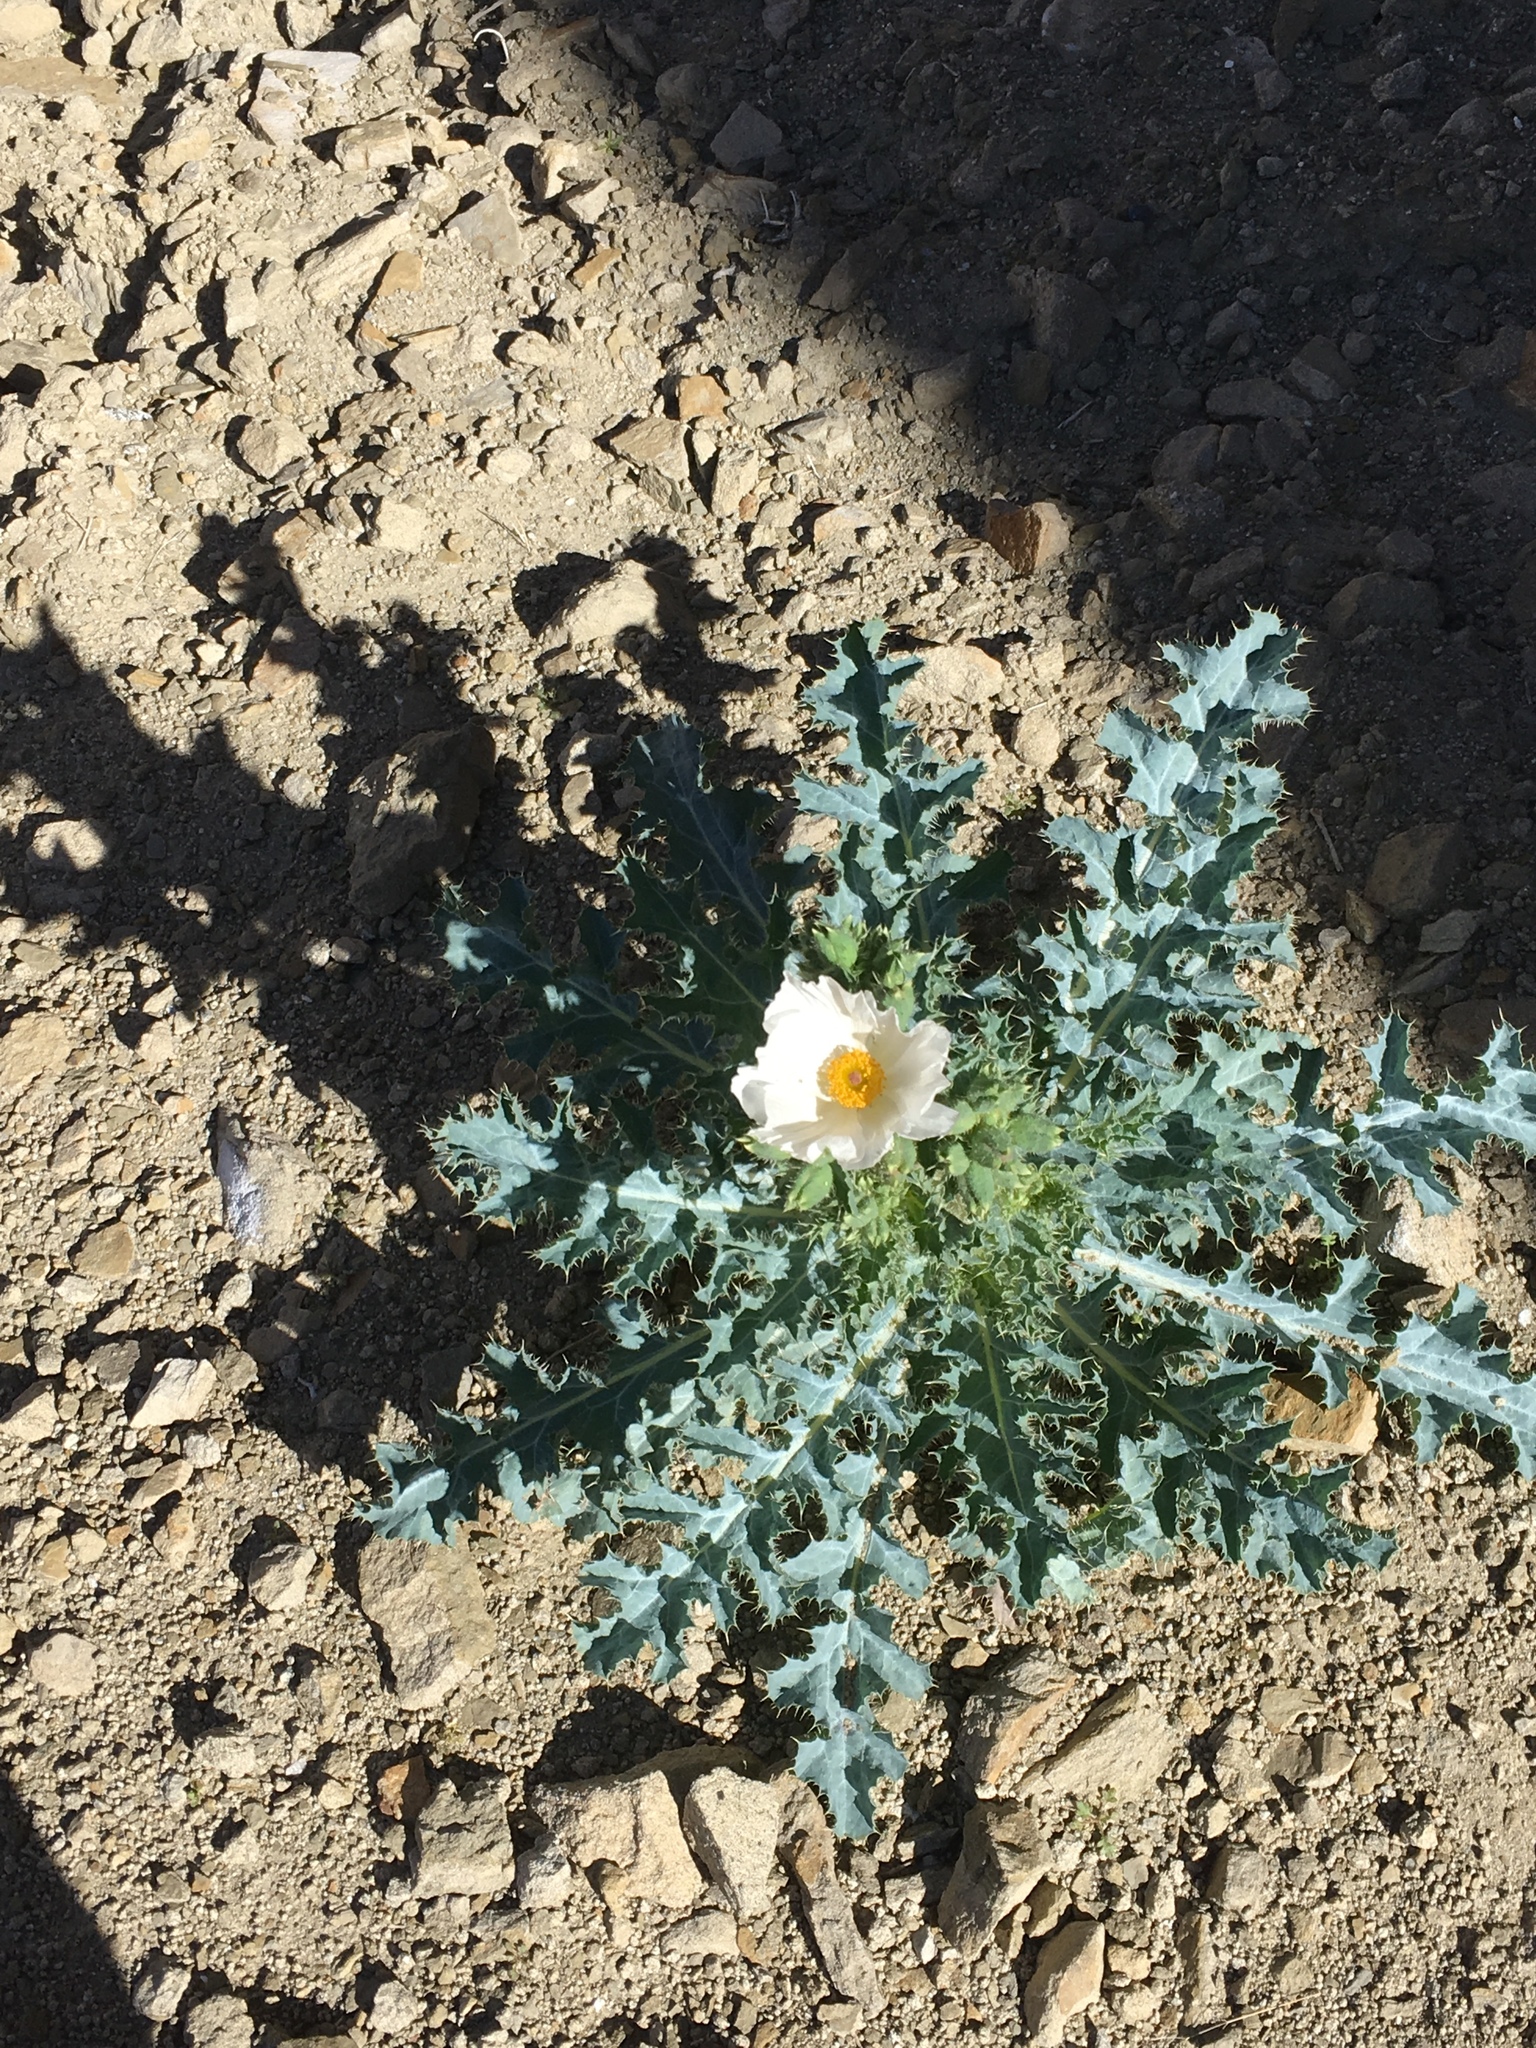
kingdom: Plantae
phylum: Tracheophyta
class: Magnoliopsida
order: Ranunculales
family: Papaveraceae
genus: Argemone
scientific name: Argemone munita
